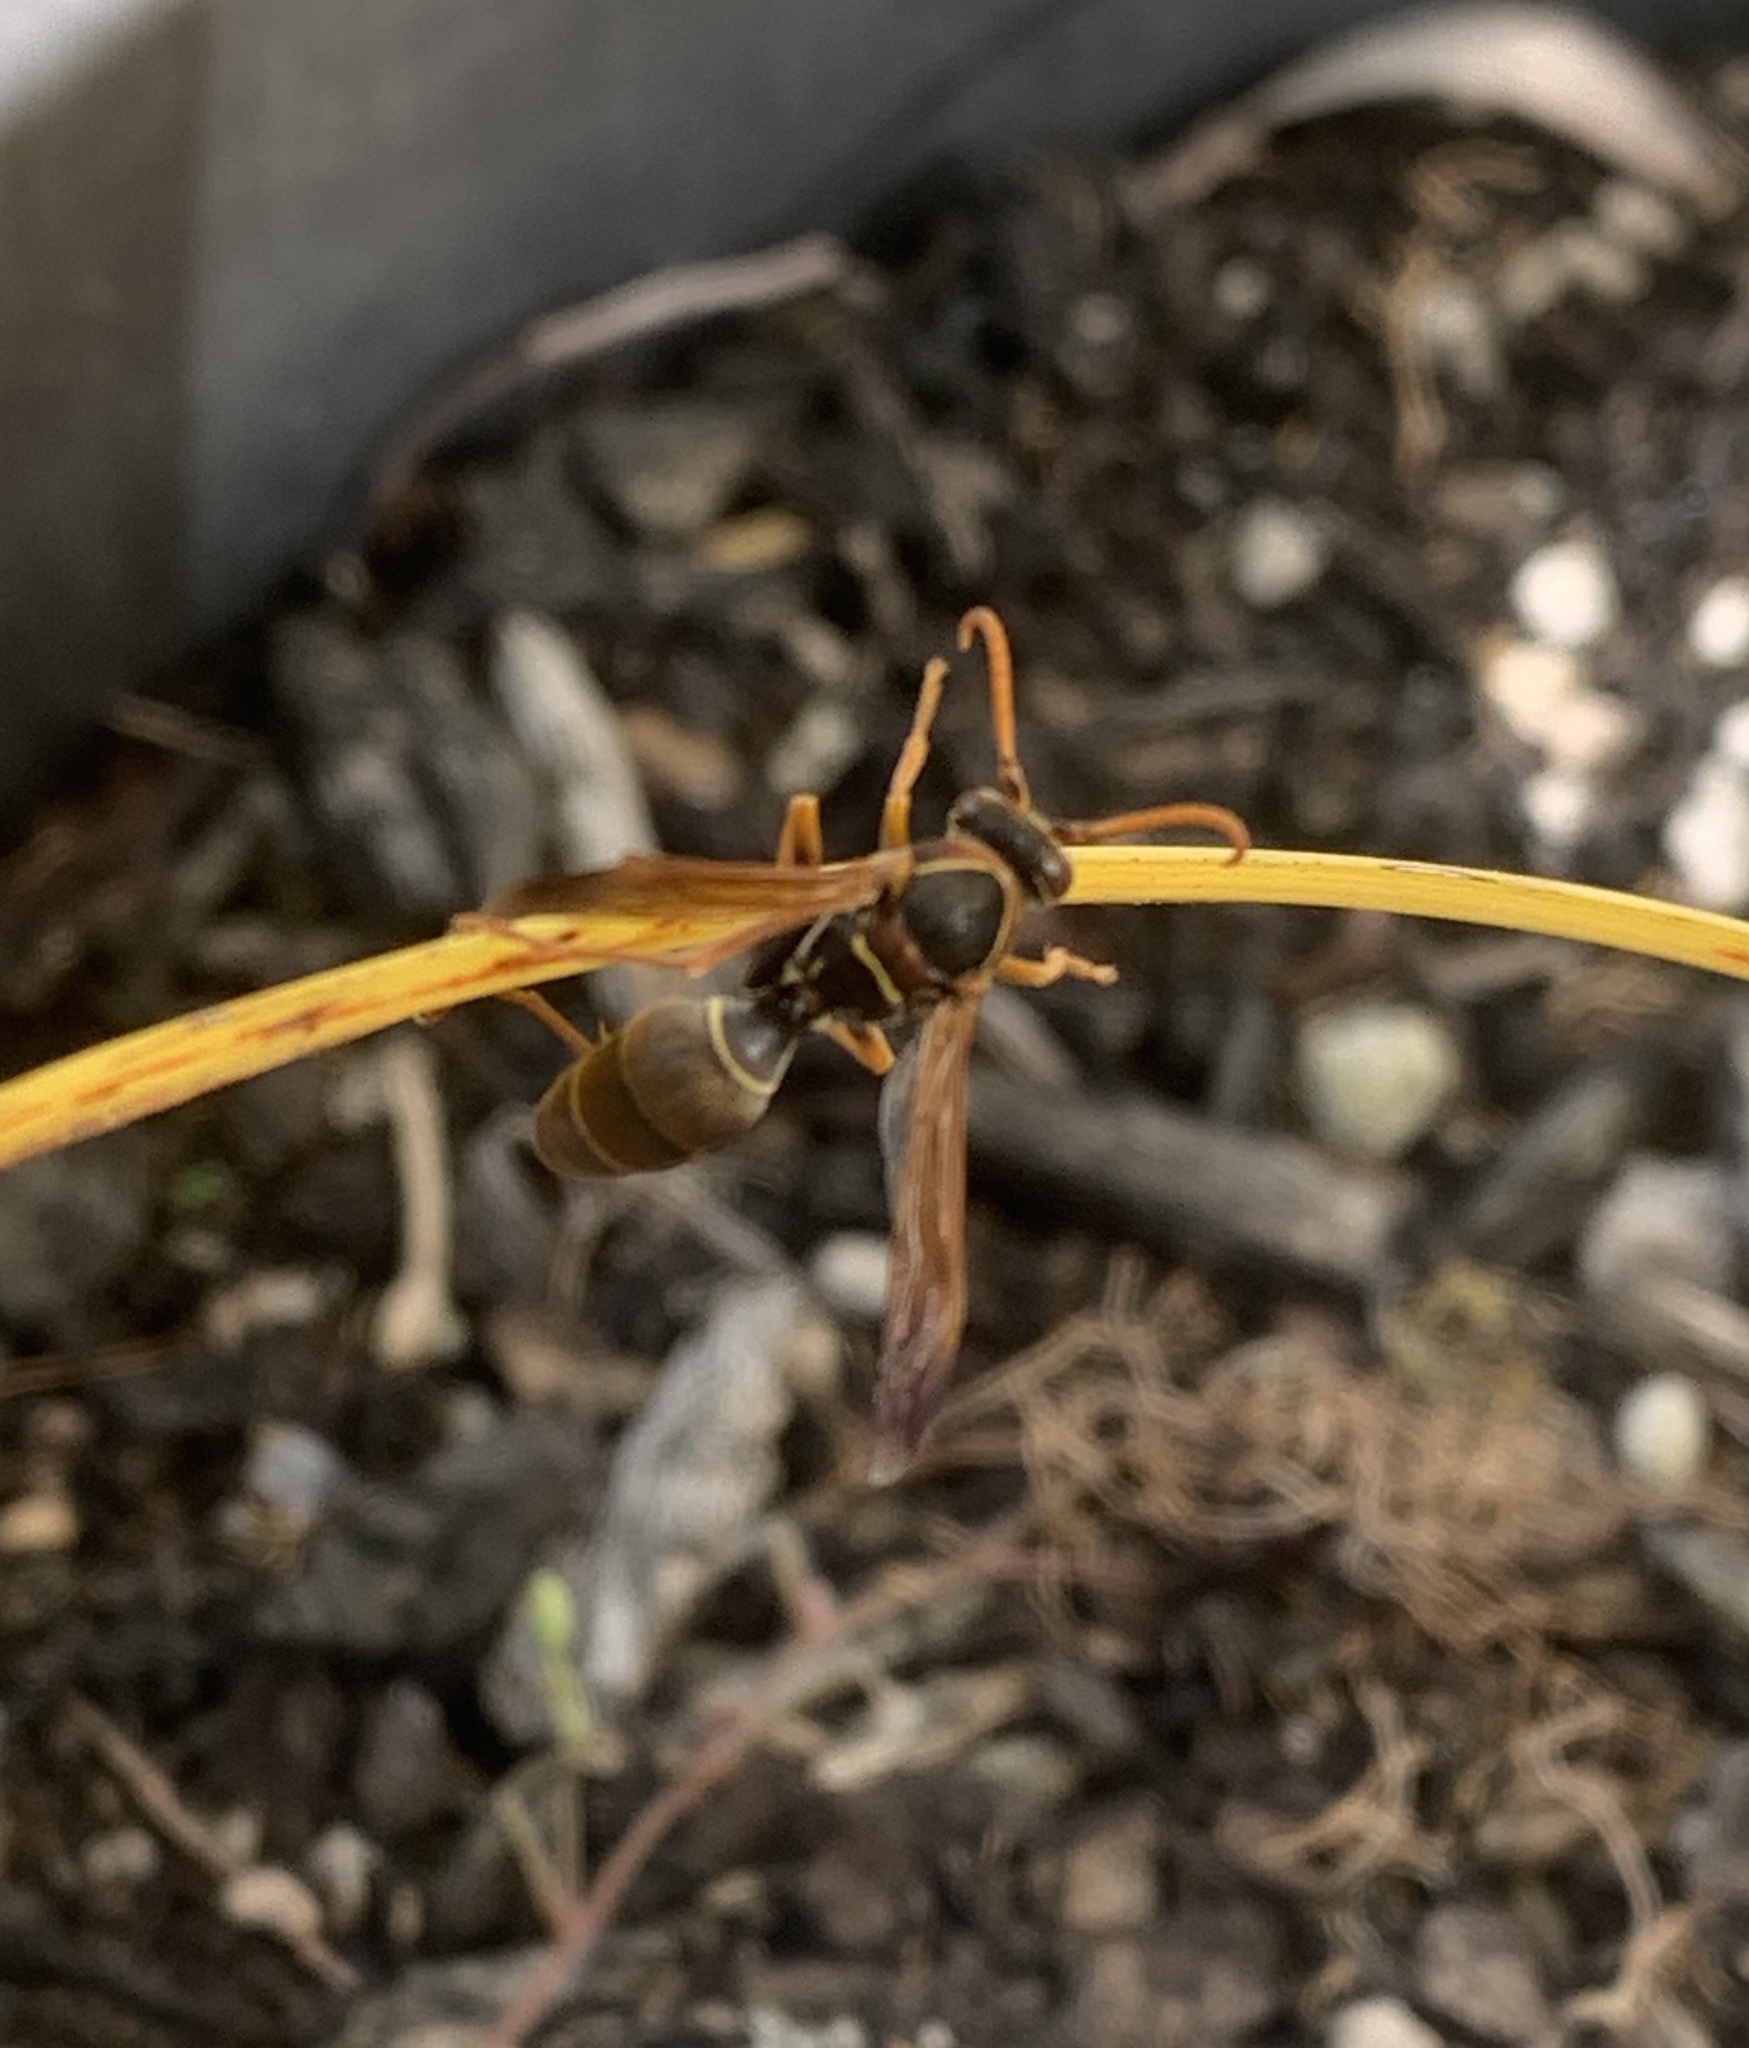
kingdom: Animalia
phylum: Arthropoda
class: Insecta
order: Hymenoptera
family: Eumenidae
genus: Polistes
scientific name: Polistes humilis
